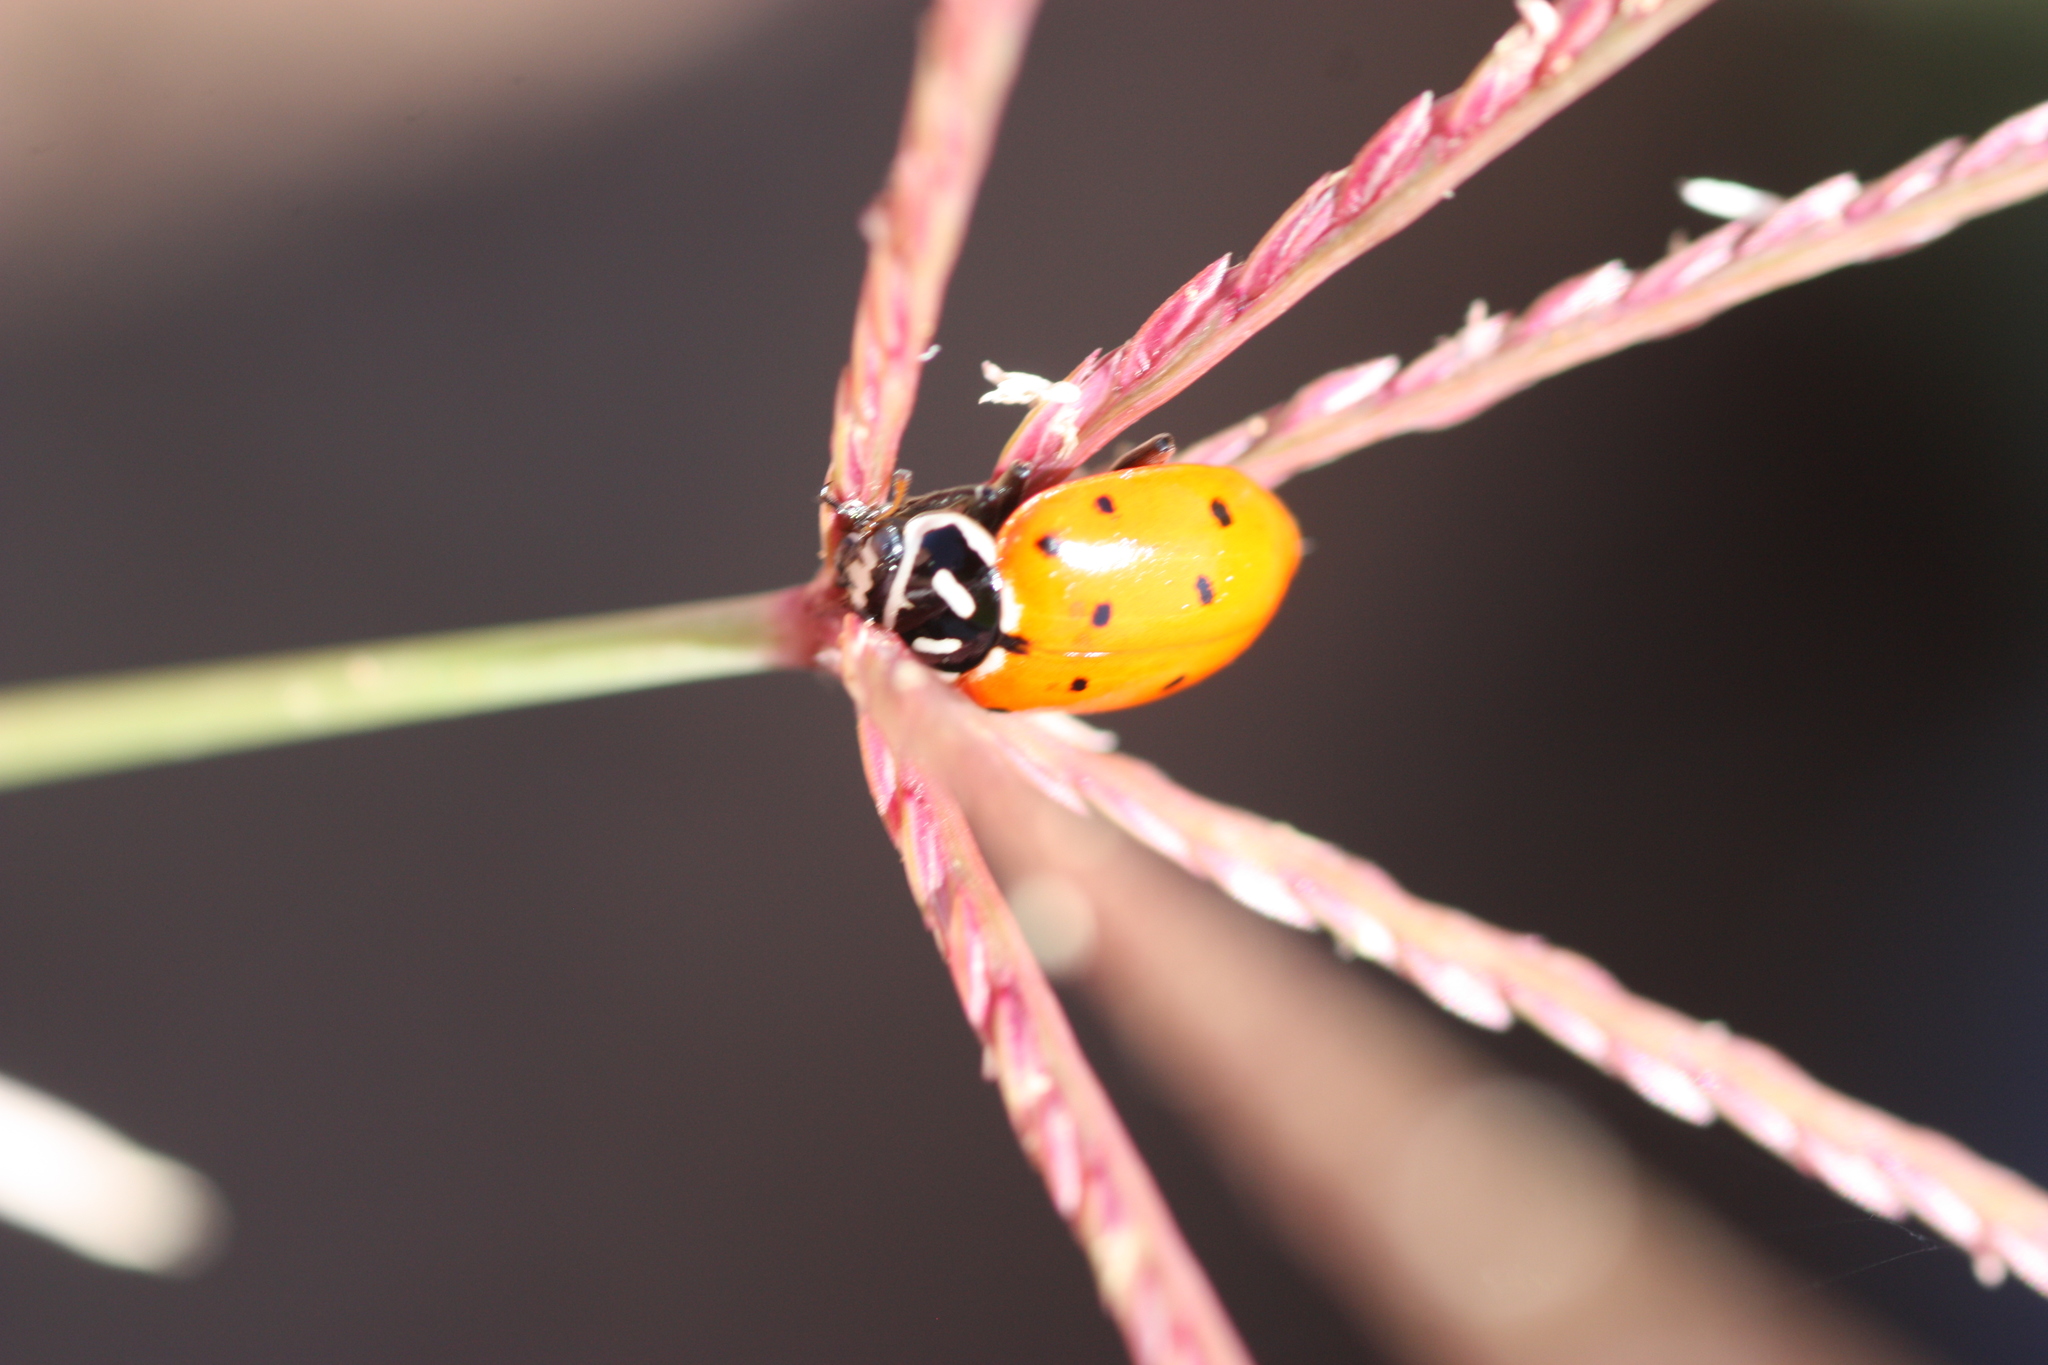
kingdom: Animalia
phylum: Arthropoda
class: Insecta
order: Coleoptera
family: Coccinellidae
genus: Hippodamia
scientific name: Hippodamia convergens
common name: Convergent lady beetle
